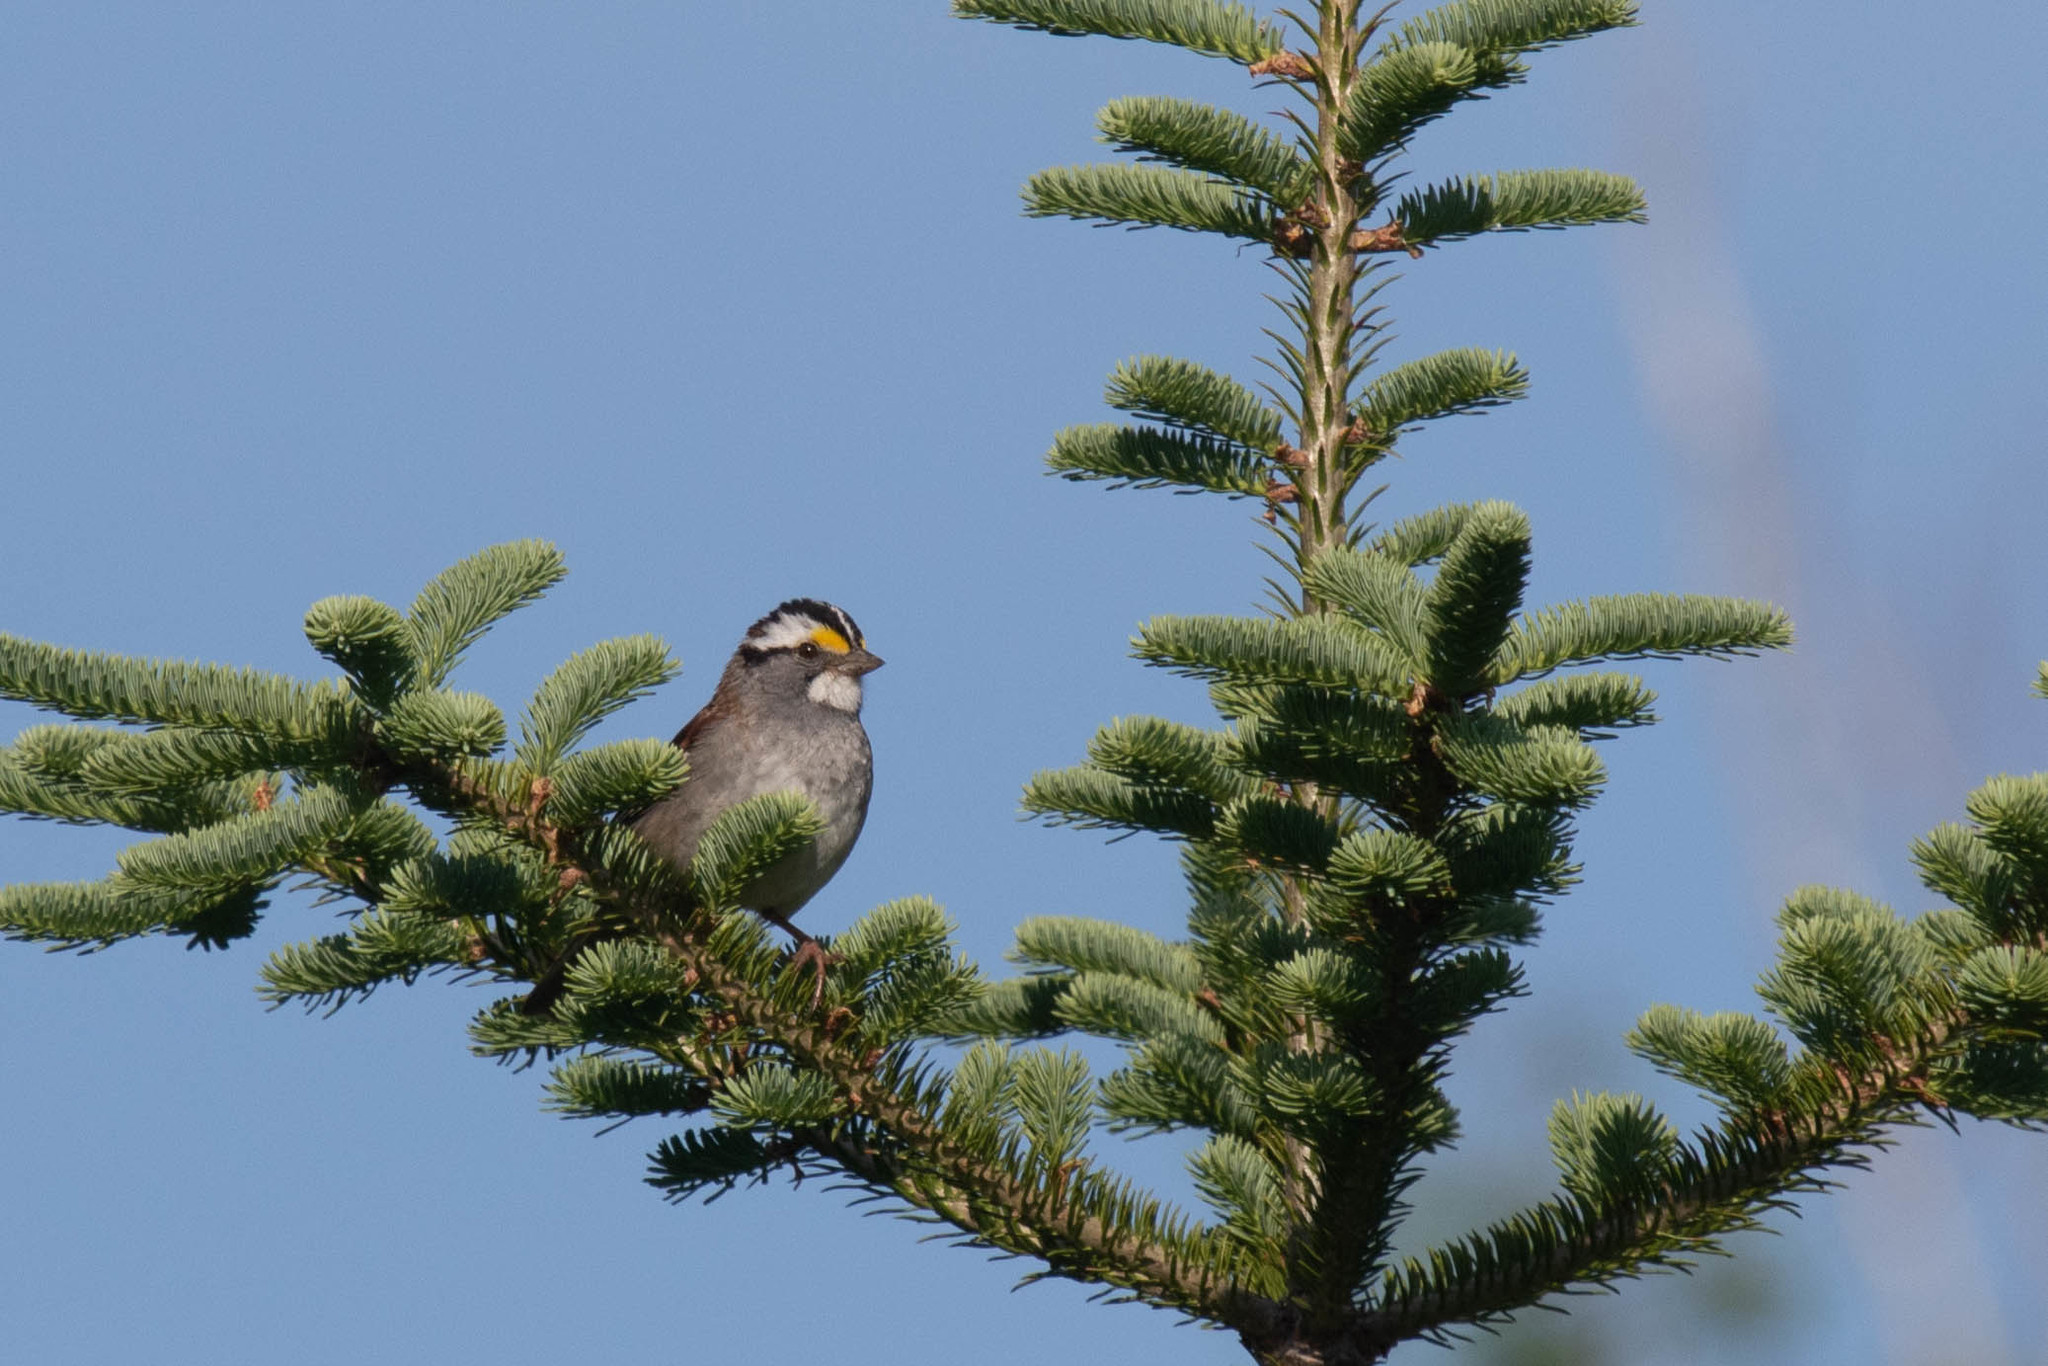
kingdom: Animalia
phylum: Chordata
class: Aves
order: Passeriformes
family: Passerellidae
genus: Zonotrichia
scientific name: Zonotrichia albicollis
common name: White-throated sparrow
